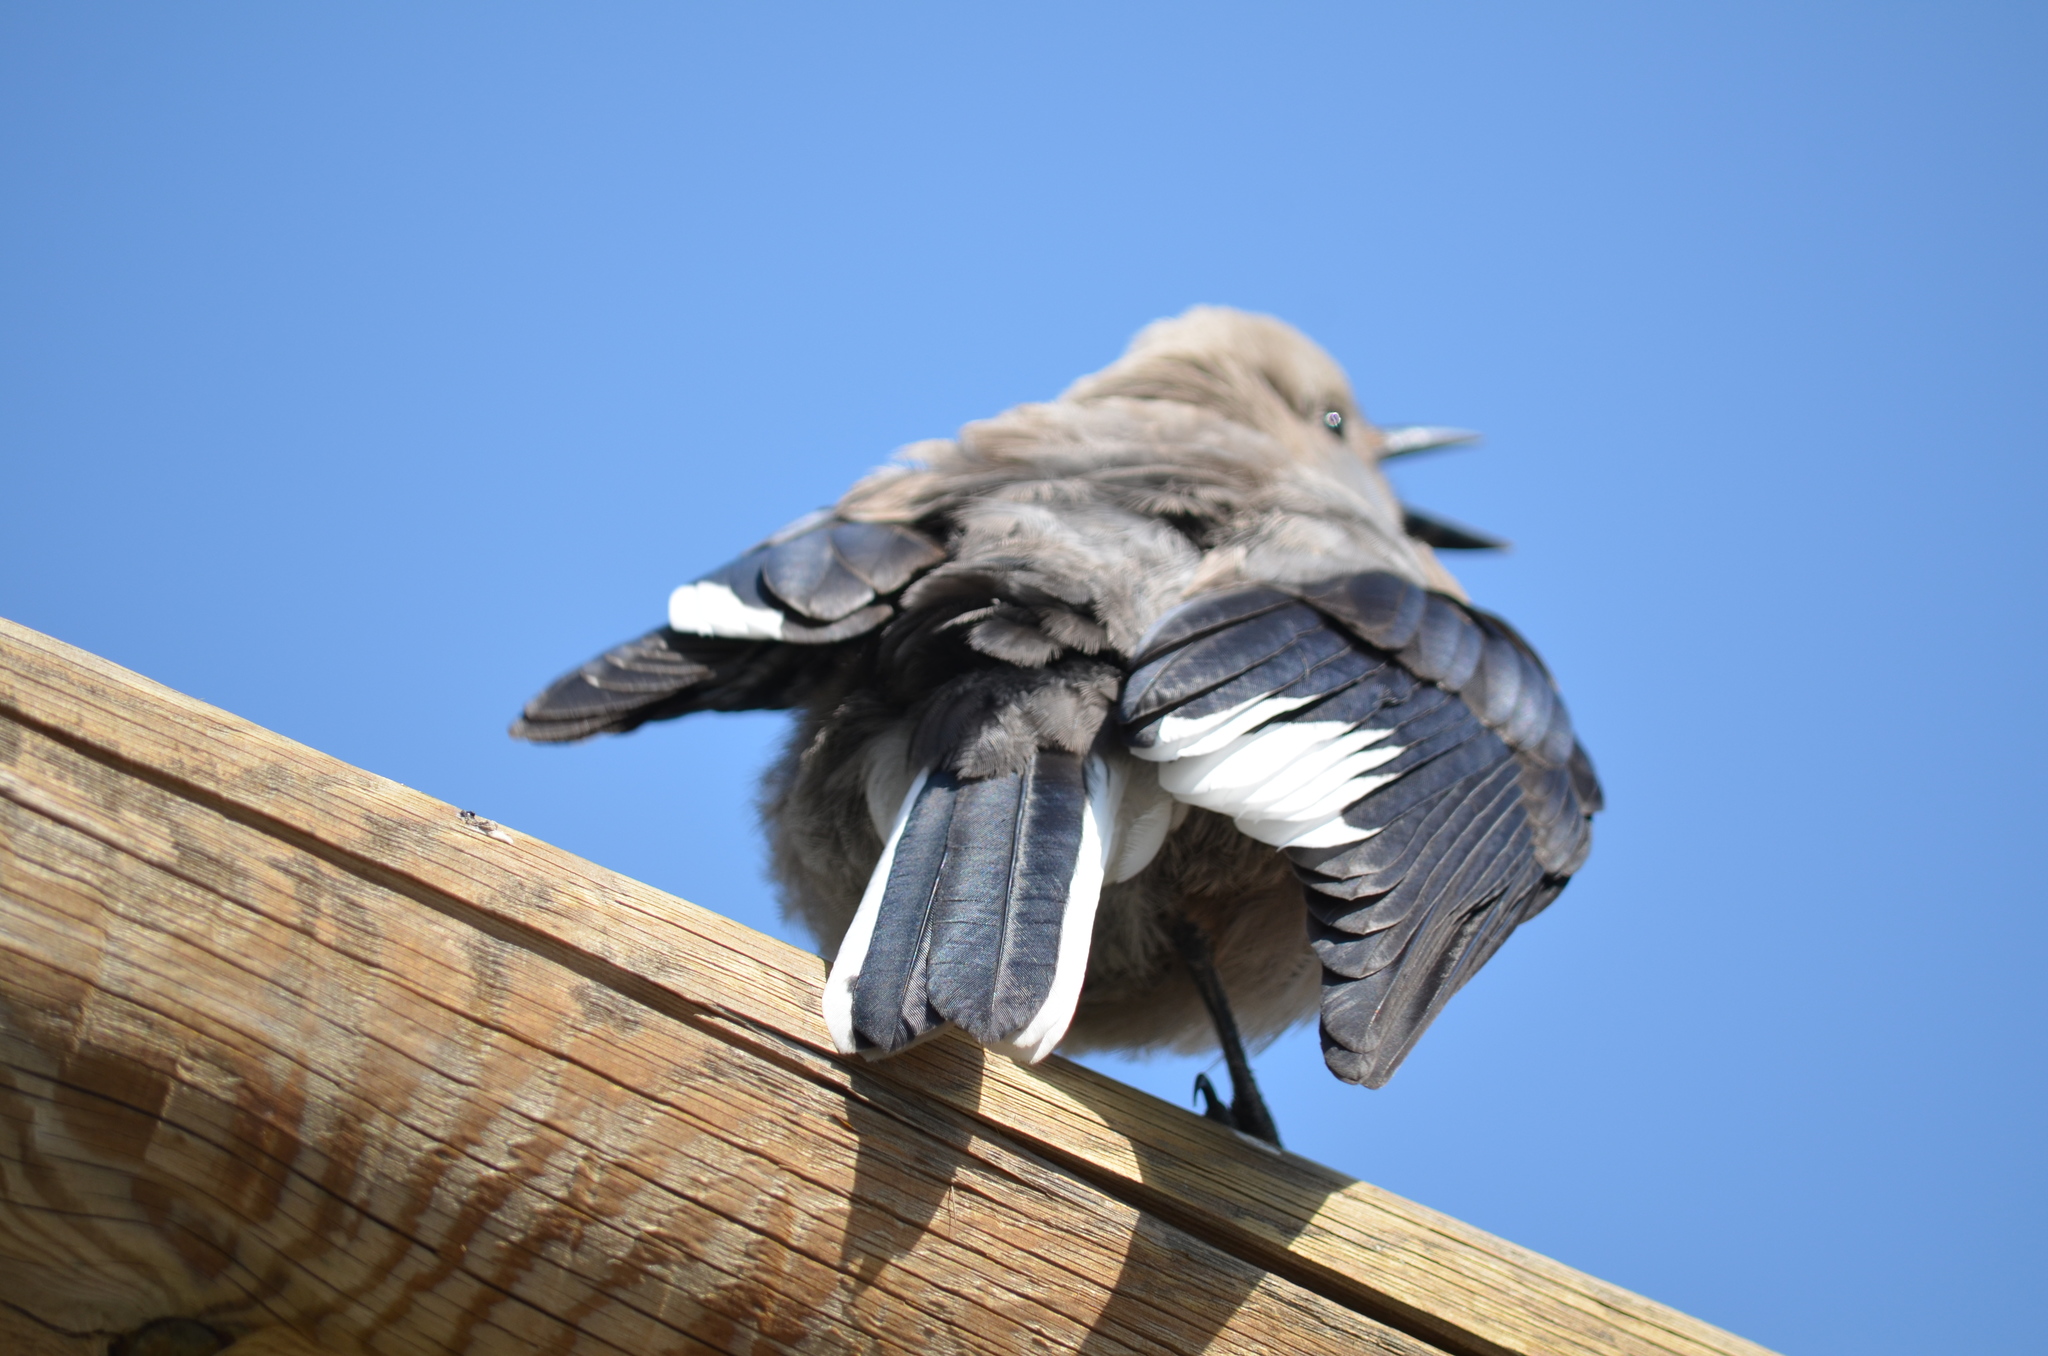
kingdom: Animalia
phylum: Chordata
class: Aves
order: Passeriformes
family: Corvidae
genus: Nucifraga
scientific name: Nucifraga columbiana
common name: Clark's nutcracker
